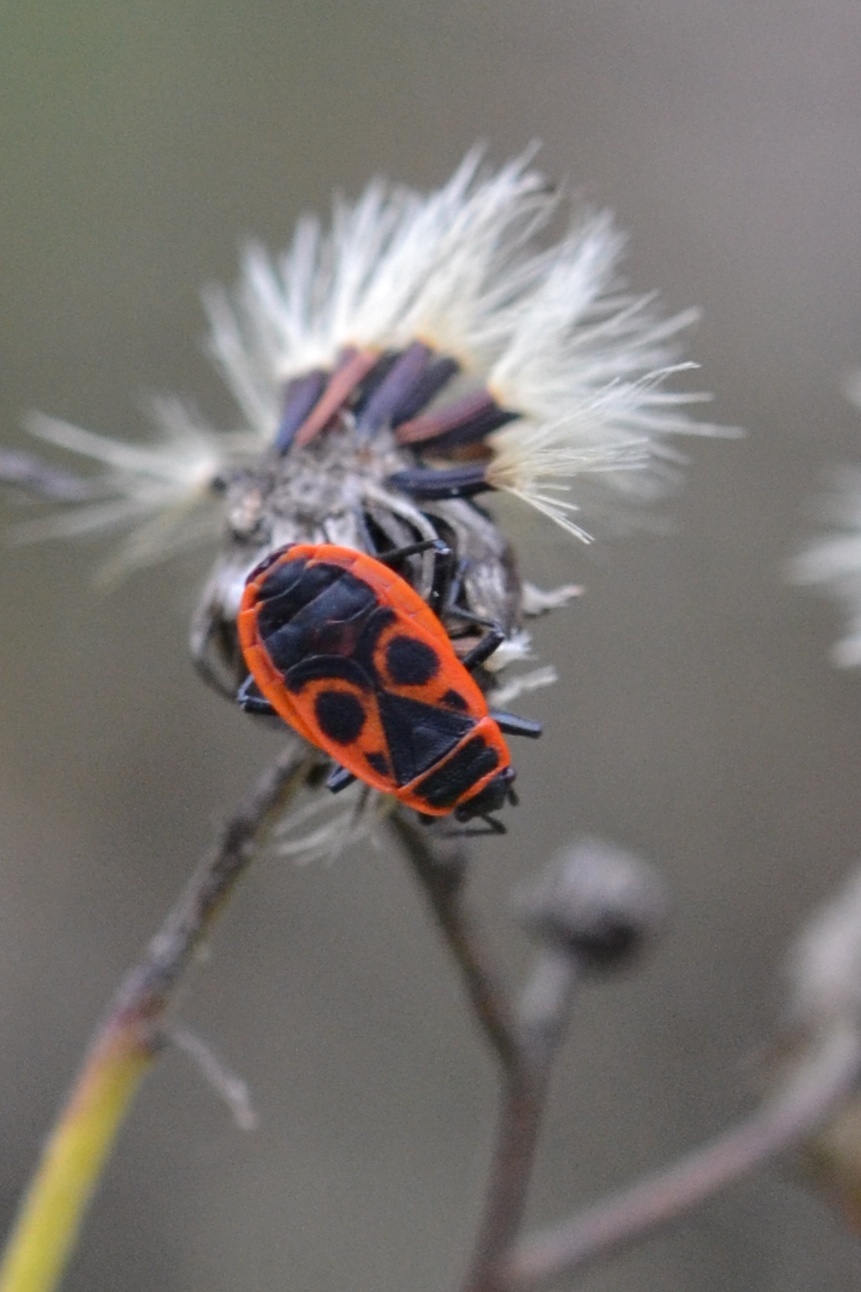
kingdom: Animalia
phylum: Arthropoda
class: Insecta
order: Hemiptera
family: Pyrrhocoridae
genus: Pyrrhocoris
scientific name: Pyrrhocoris apterus
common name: Firebug
